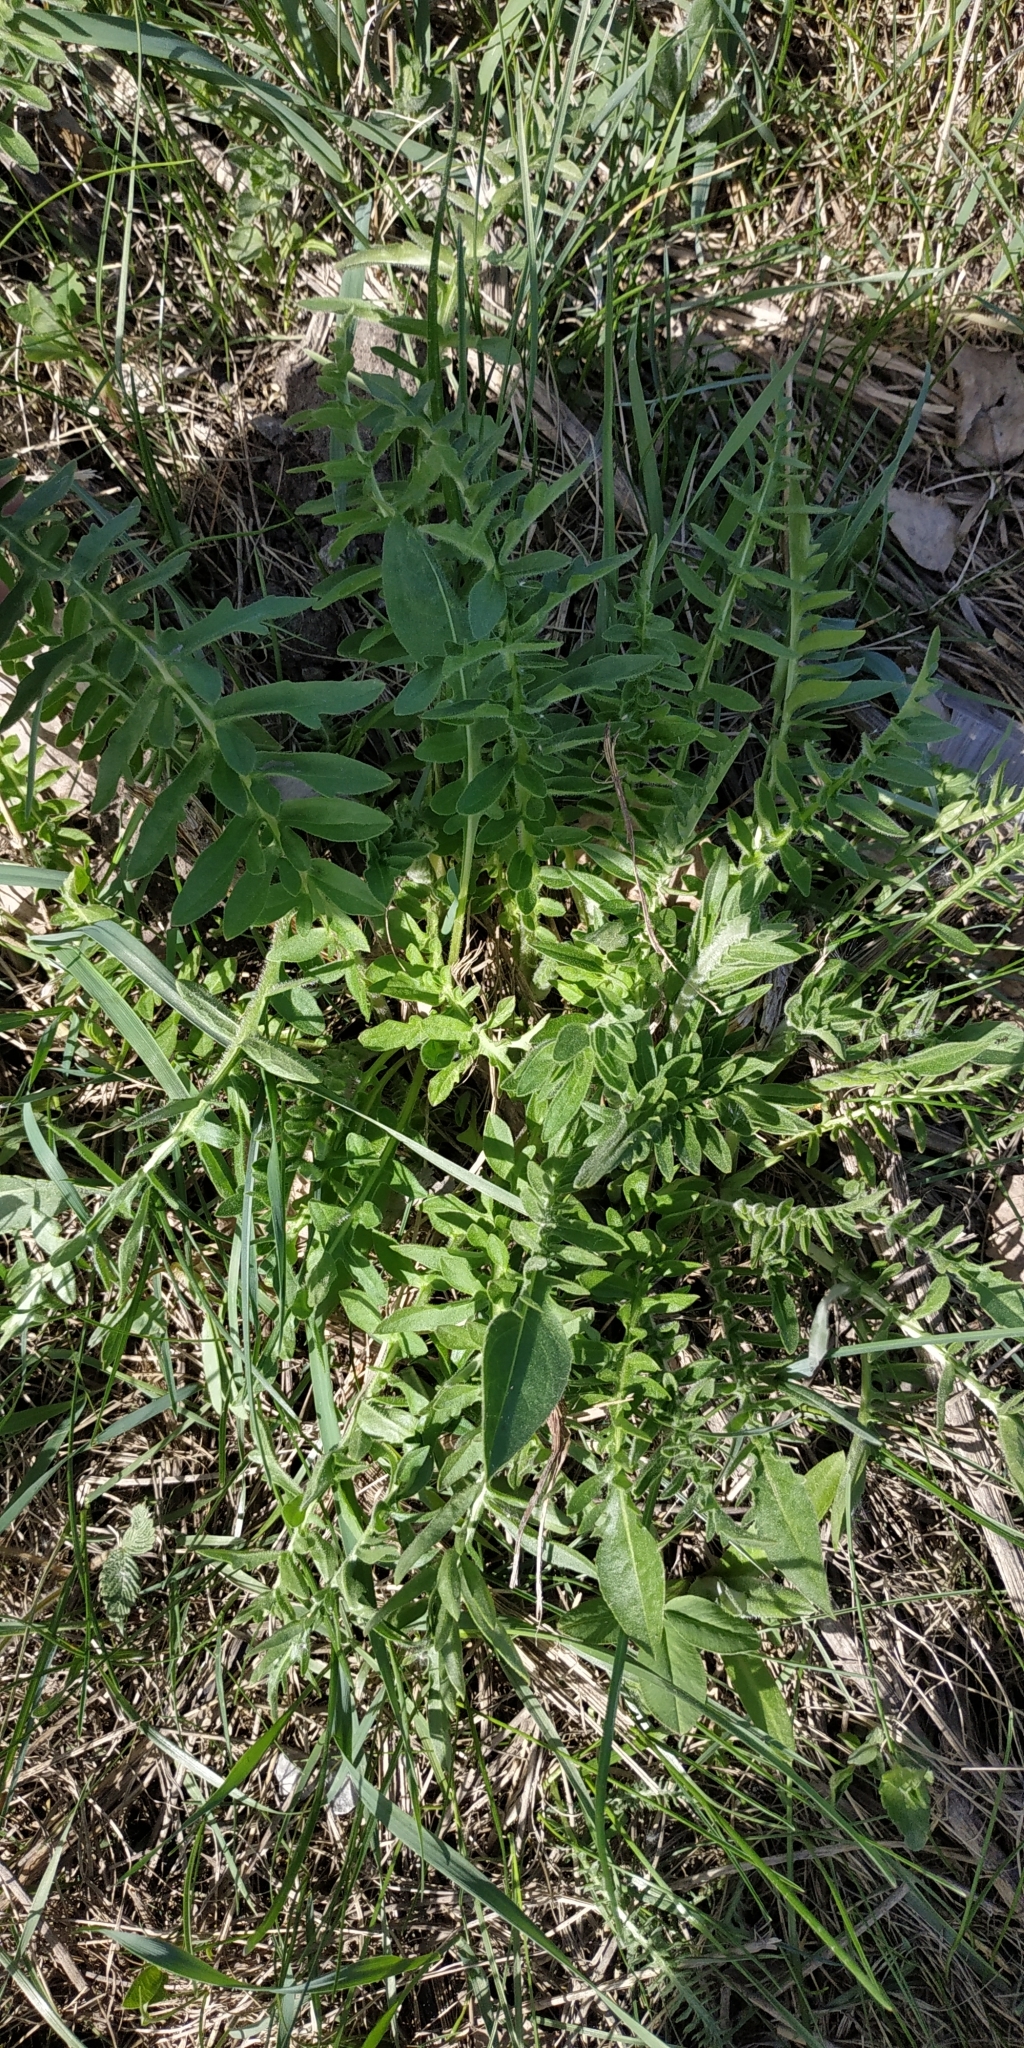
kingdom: Plantae
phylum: Tracheophyta
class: Magnoliopsida
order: Asterales
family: Asteraceae
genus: Centaurea
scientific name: Centaurea scabiosa
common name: Greater knapweed
